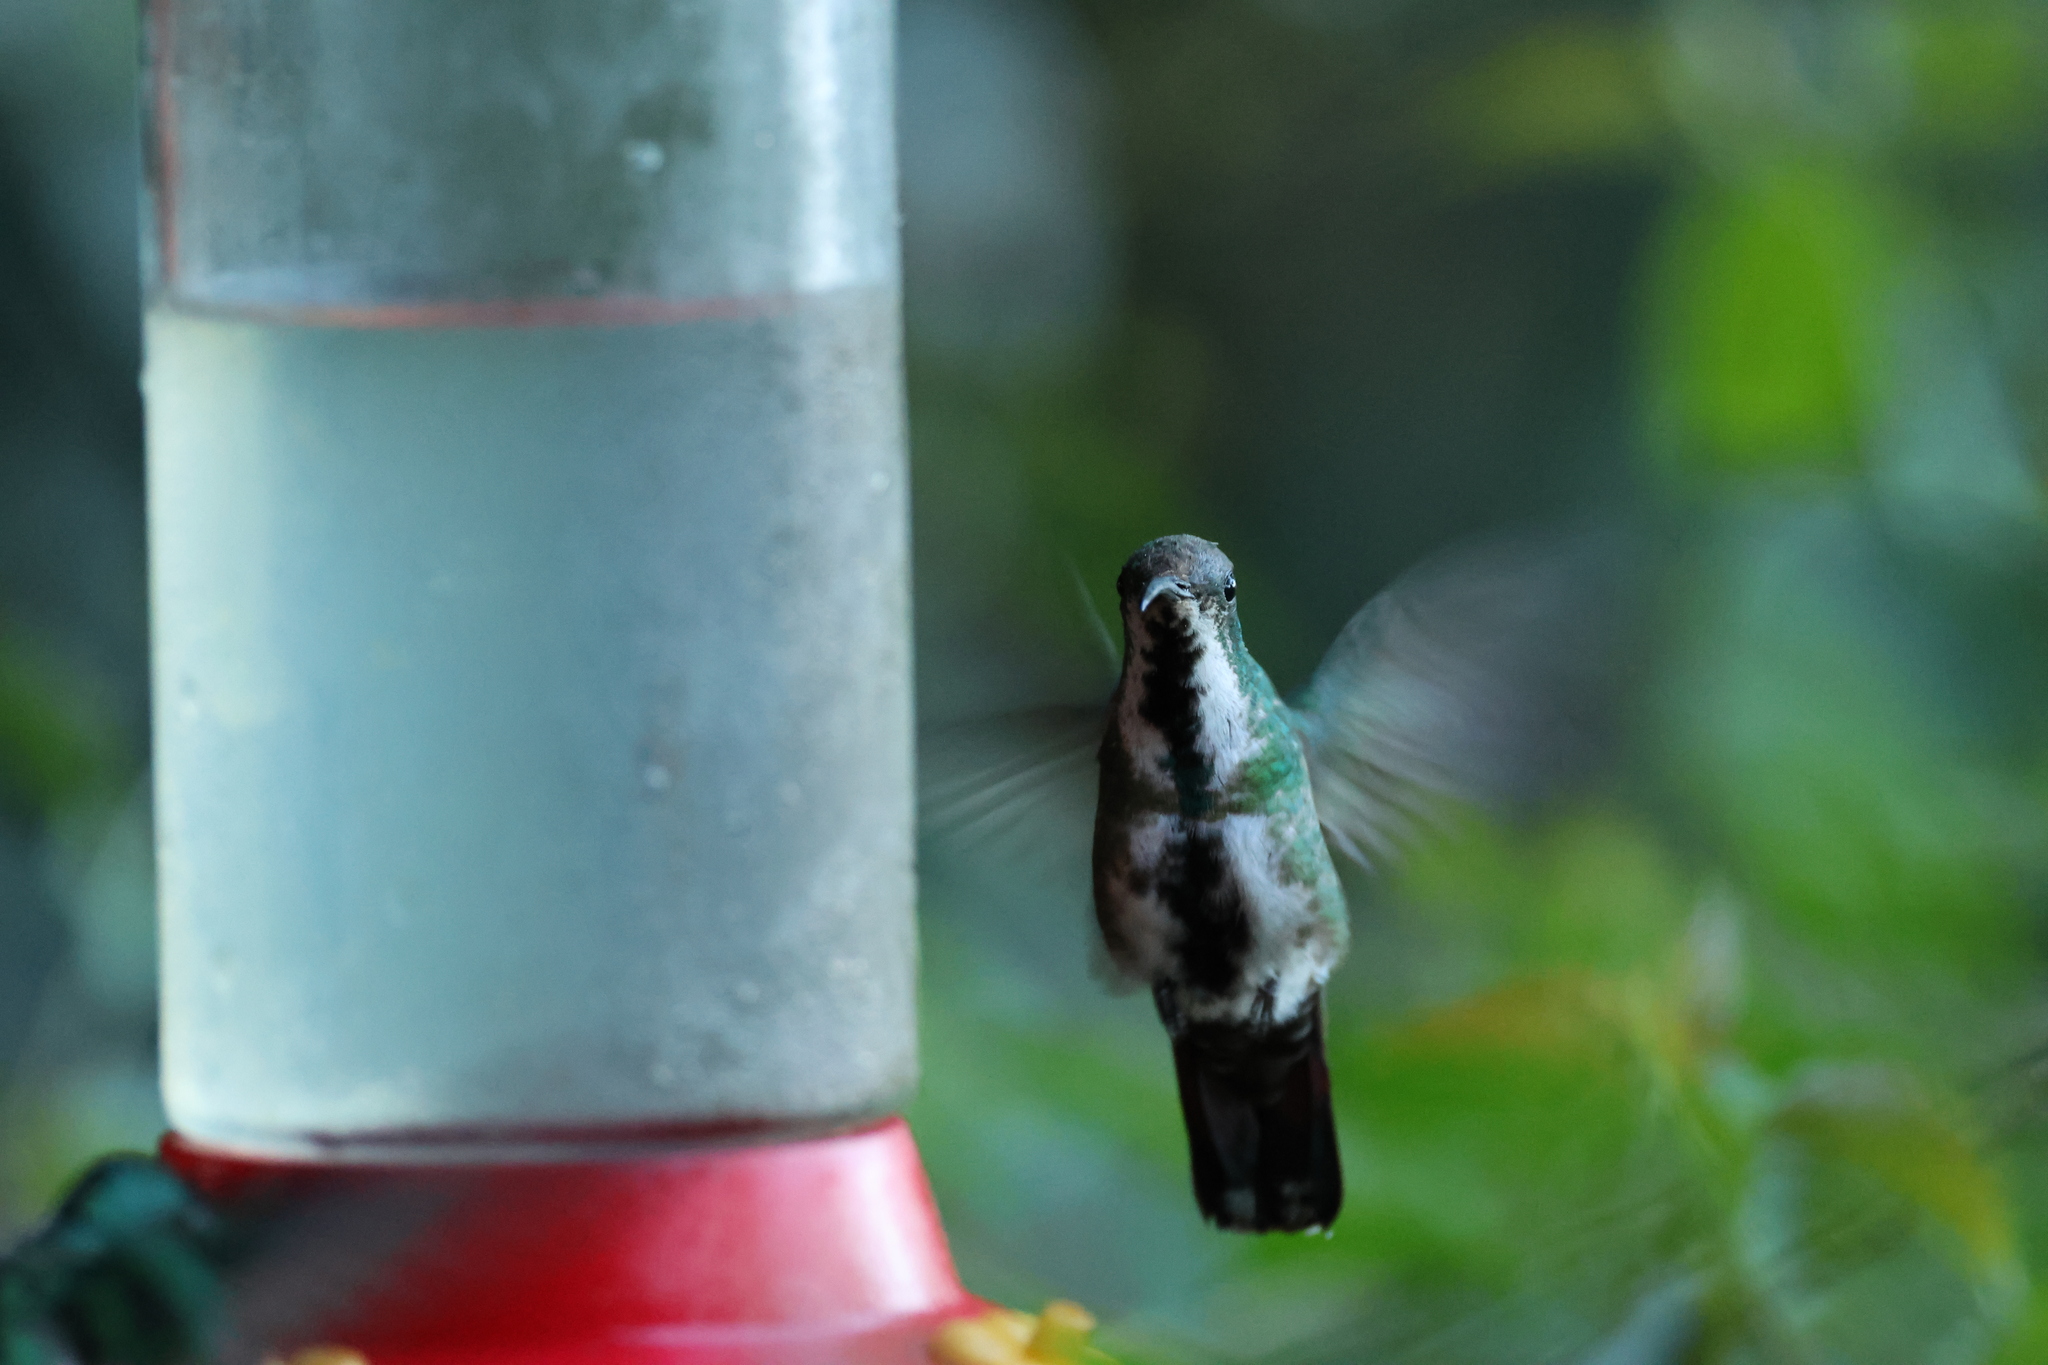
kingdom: Animalia
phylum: Chordata
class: Aves
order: Apodiformes
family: Trochilidae
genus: Anthracothorax
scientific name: Anthracothorax prevostii
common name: Green-breasted mango
